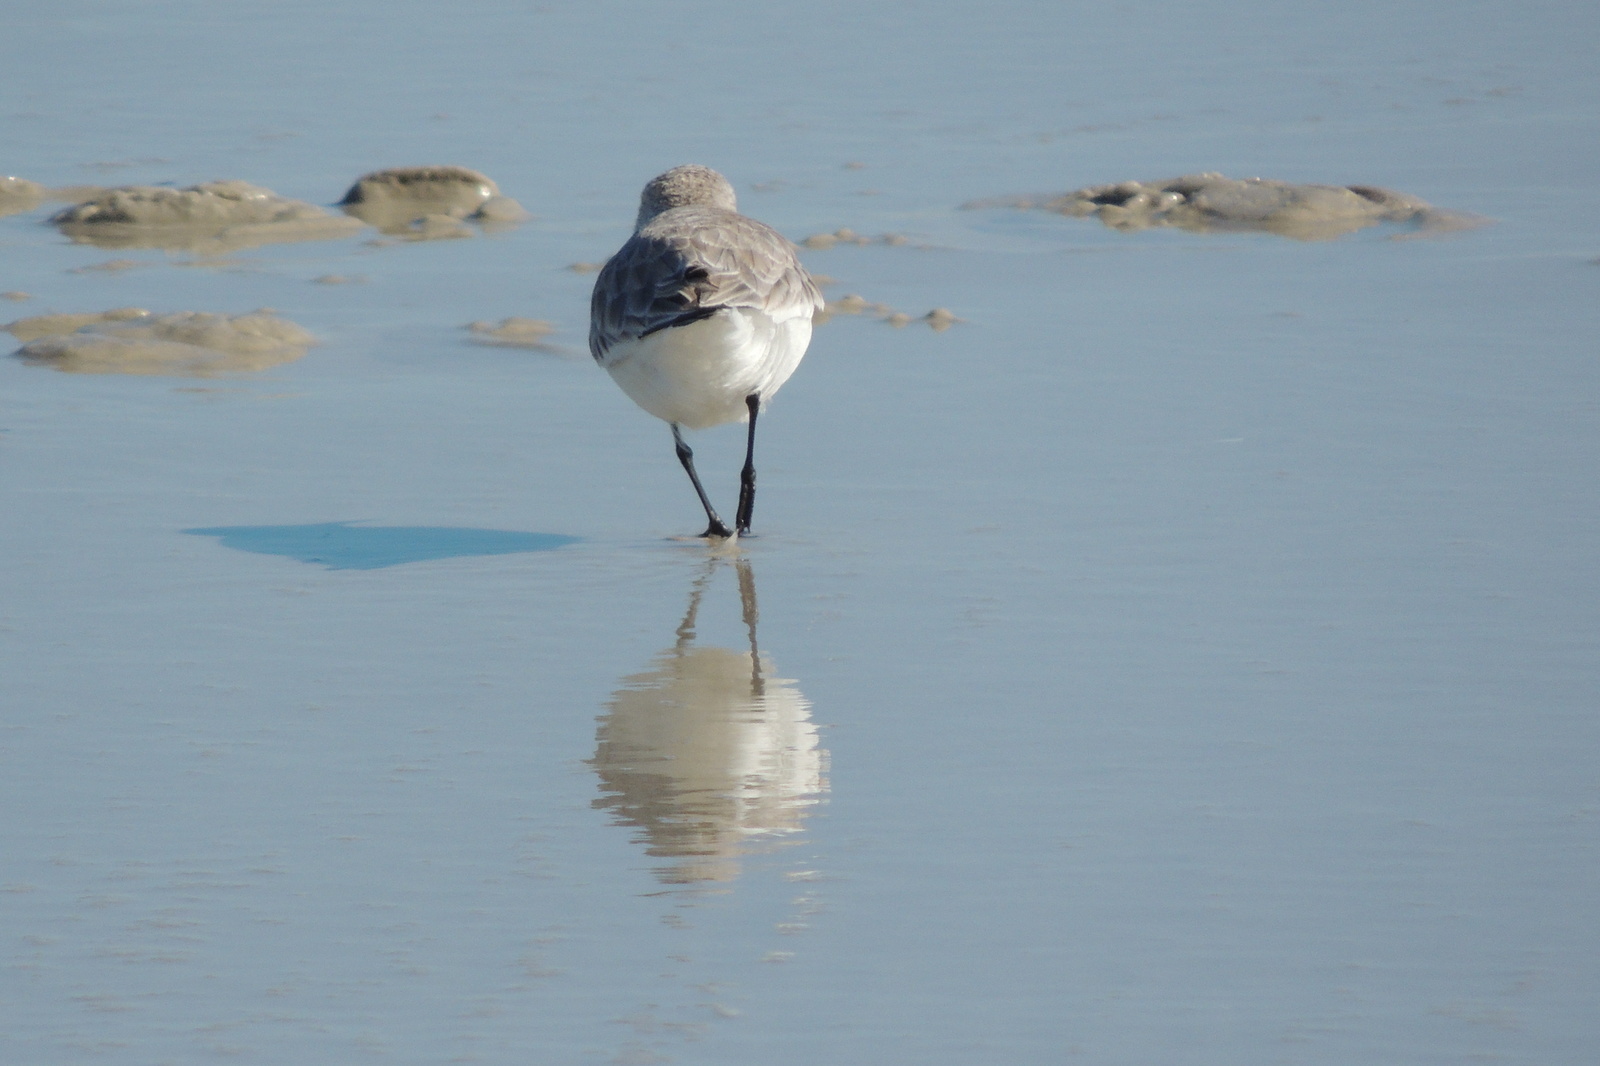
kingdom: Animalia
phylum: Chordata
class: Aves
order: Charadriiformes
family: Scolopacidae
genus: Calidris
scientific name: Calidris alba
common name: Sanderling
